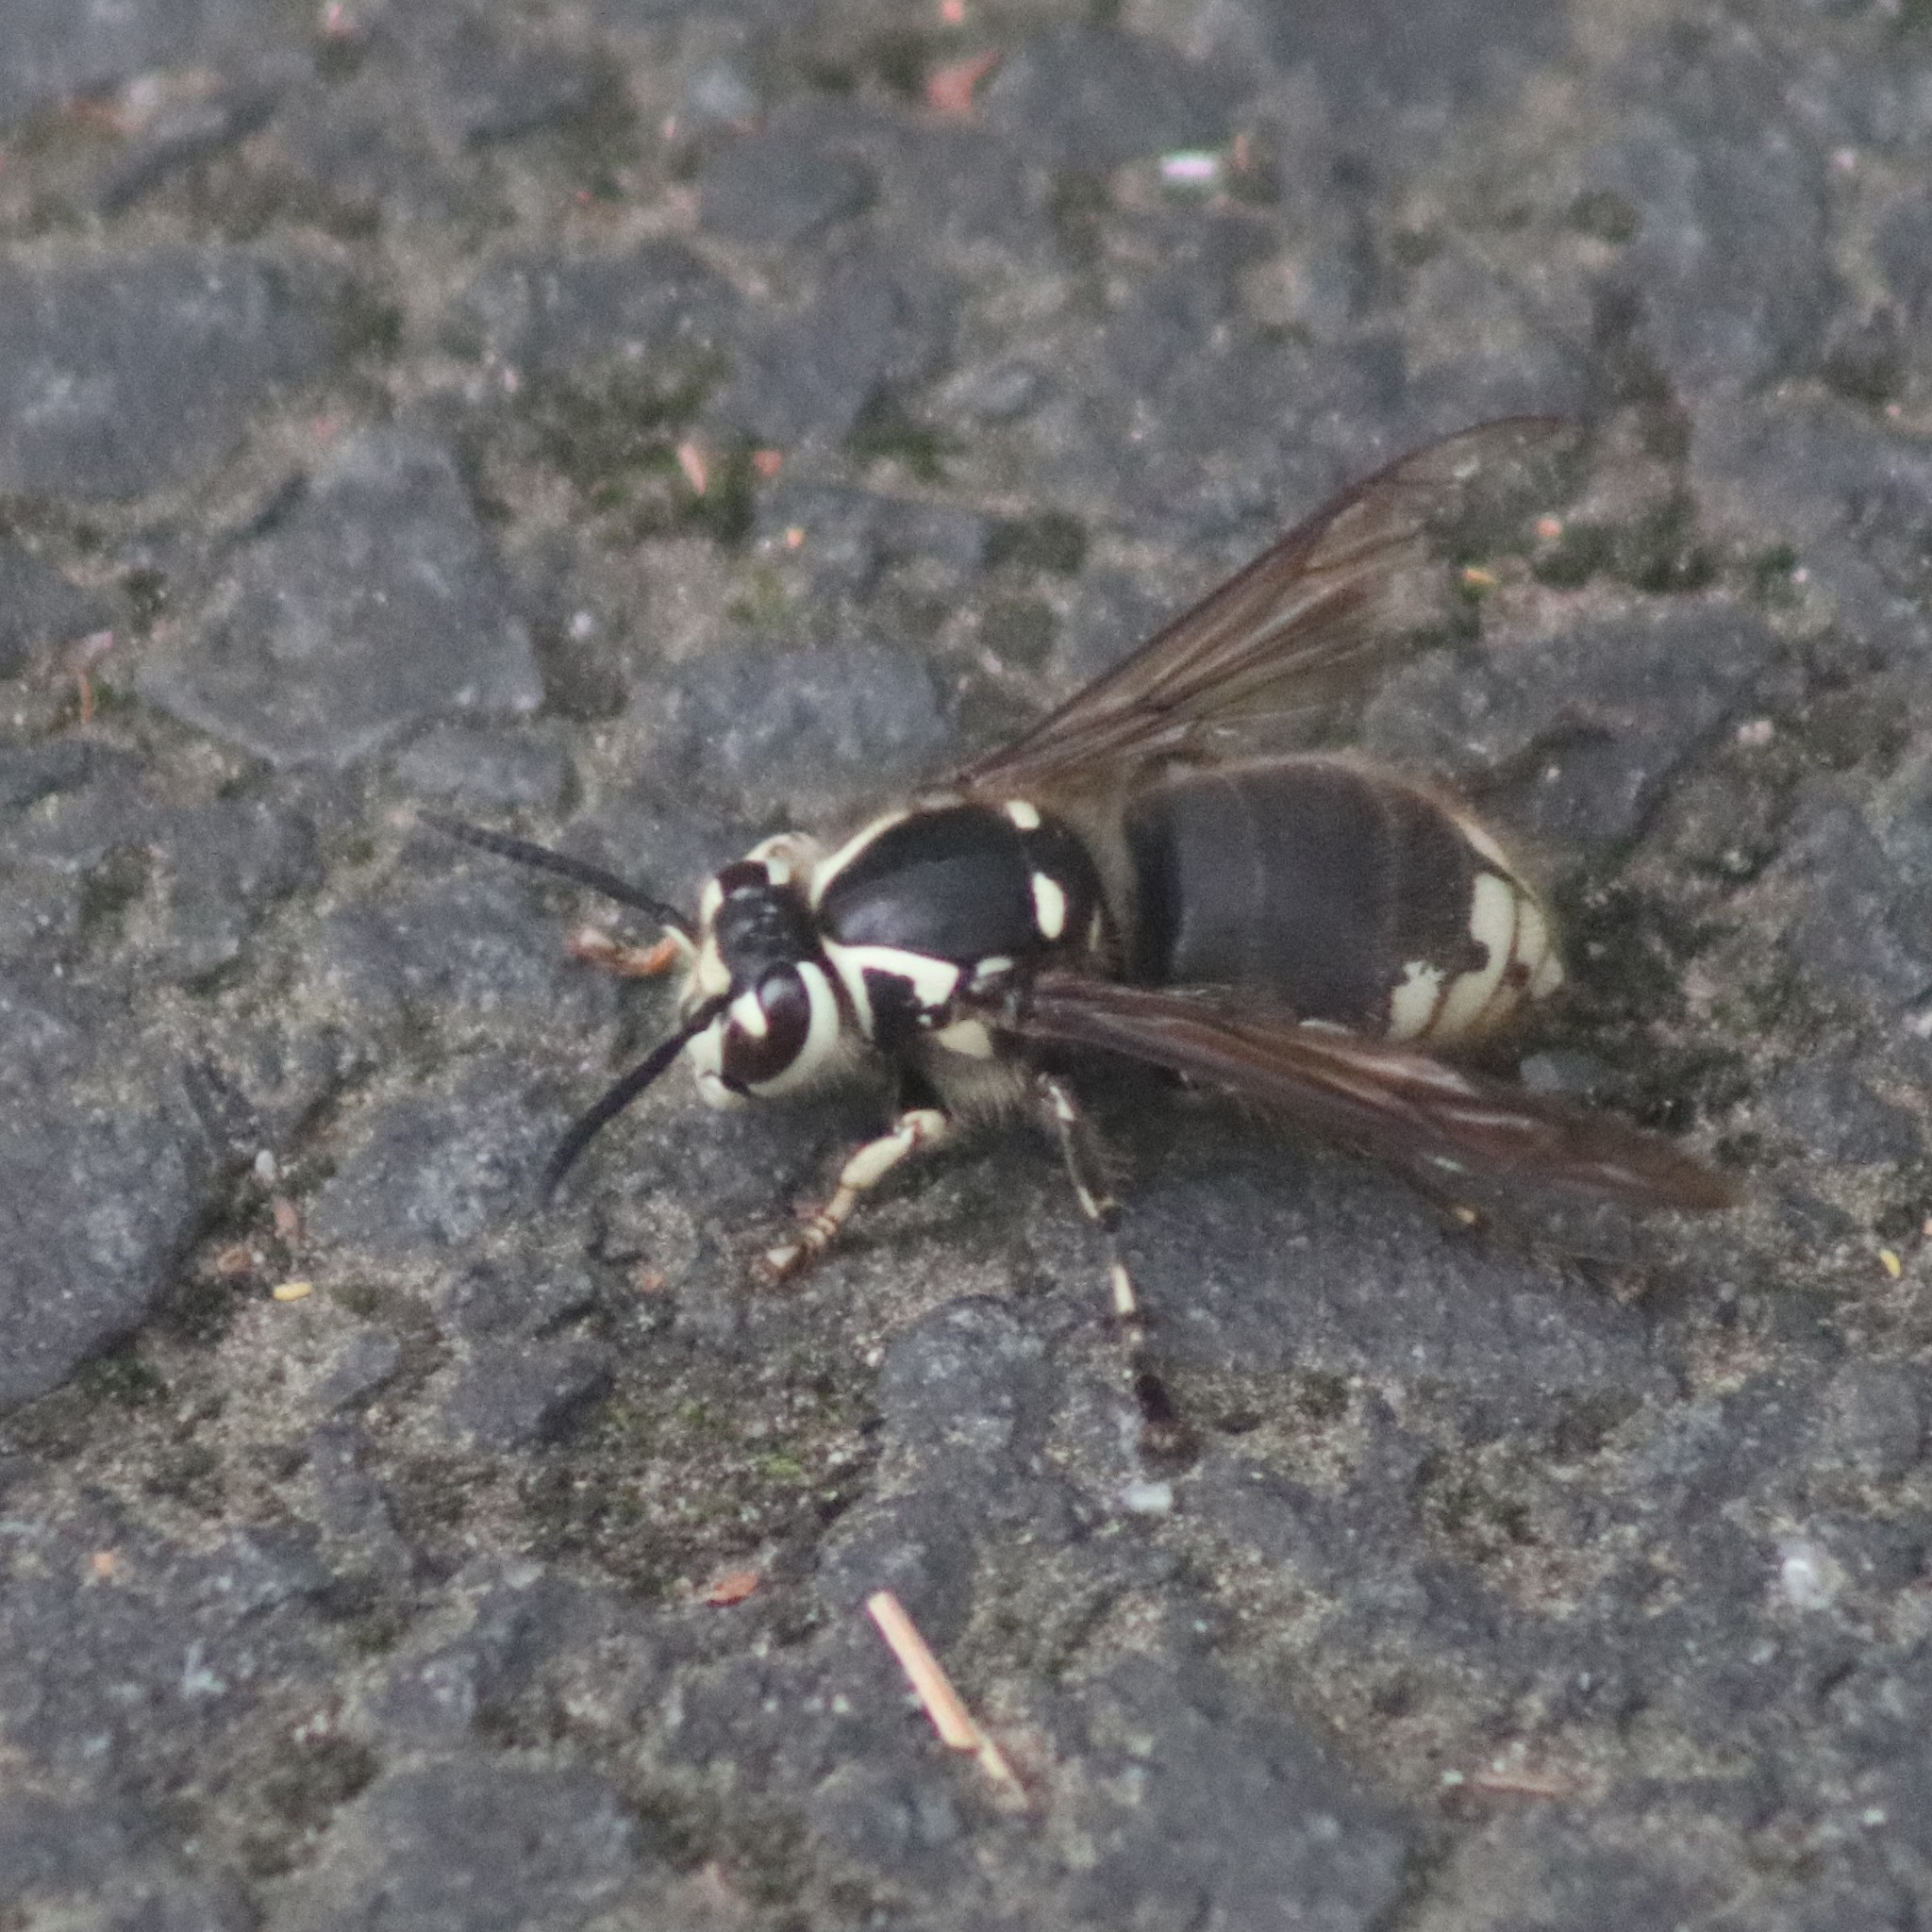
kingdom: Animalia
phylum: Arthropoda
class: Insecta
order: Hymenoptera
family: Vespidae
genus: Dolichovespula
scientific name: Dolichovespula maculata
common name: Bald-faced hornet
